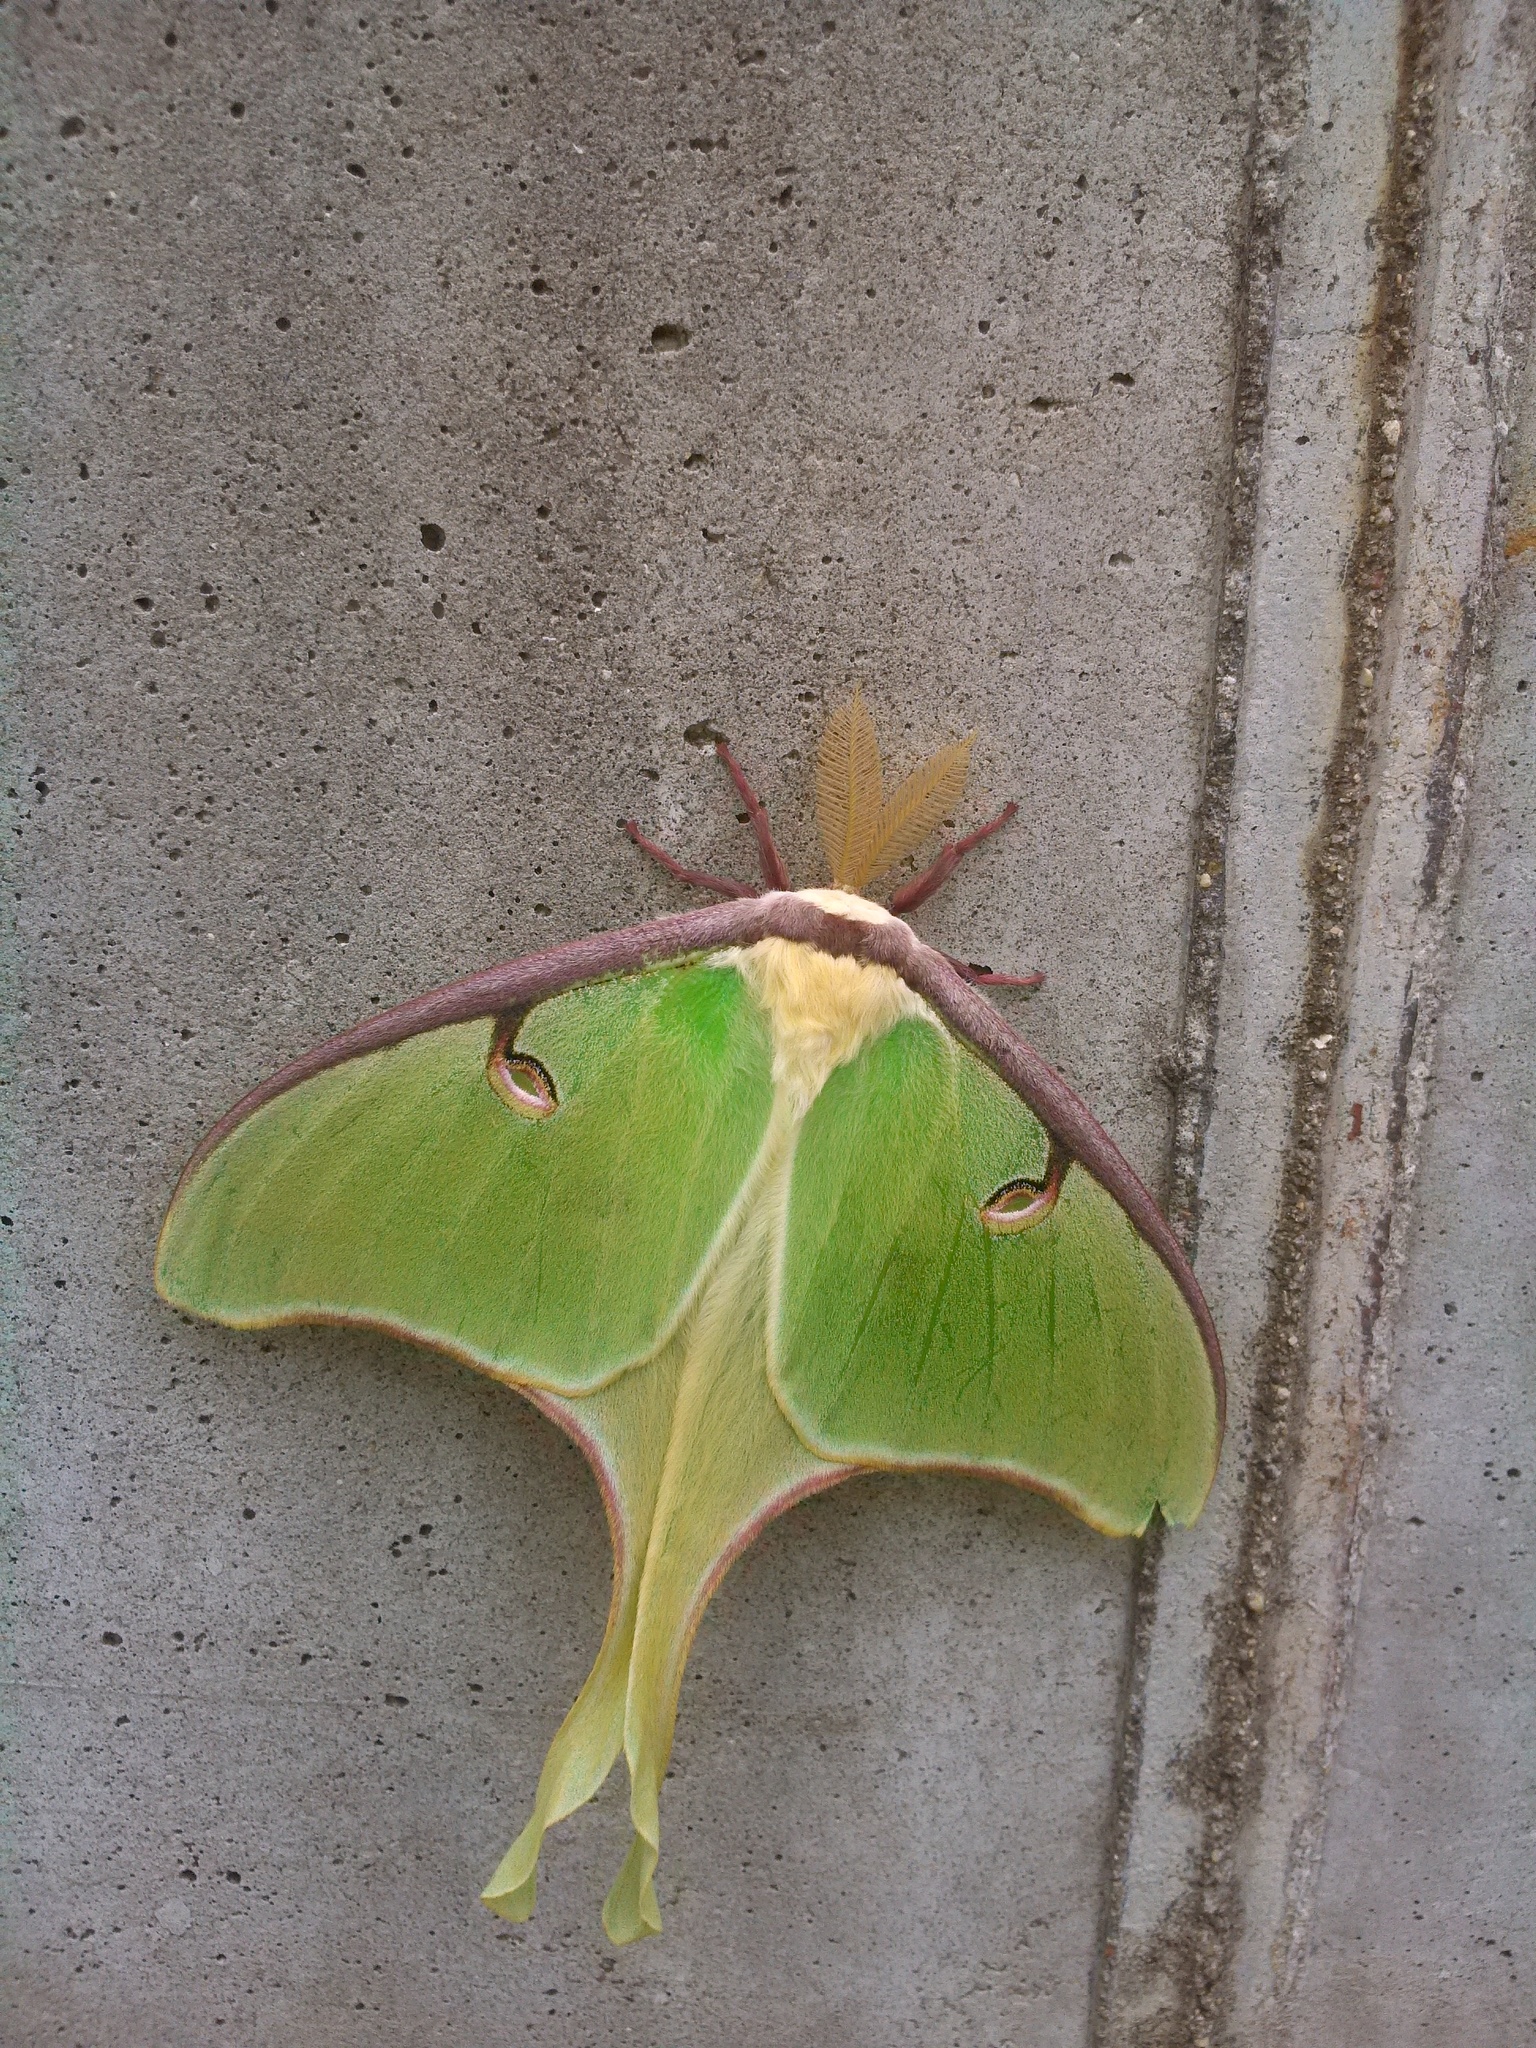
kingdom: Animalia
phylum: Arthropoda
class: Insecta
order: Lepidoptera
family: Saturniidae
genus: Actias
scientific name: Actias luna
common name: Luna moth
